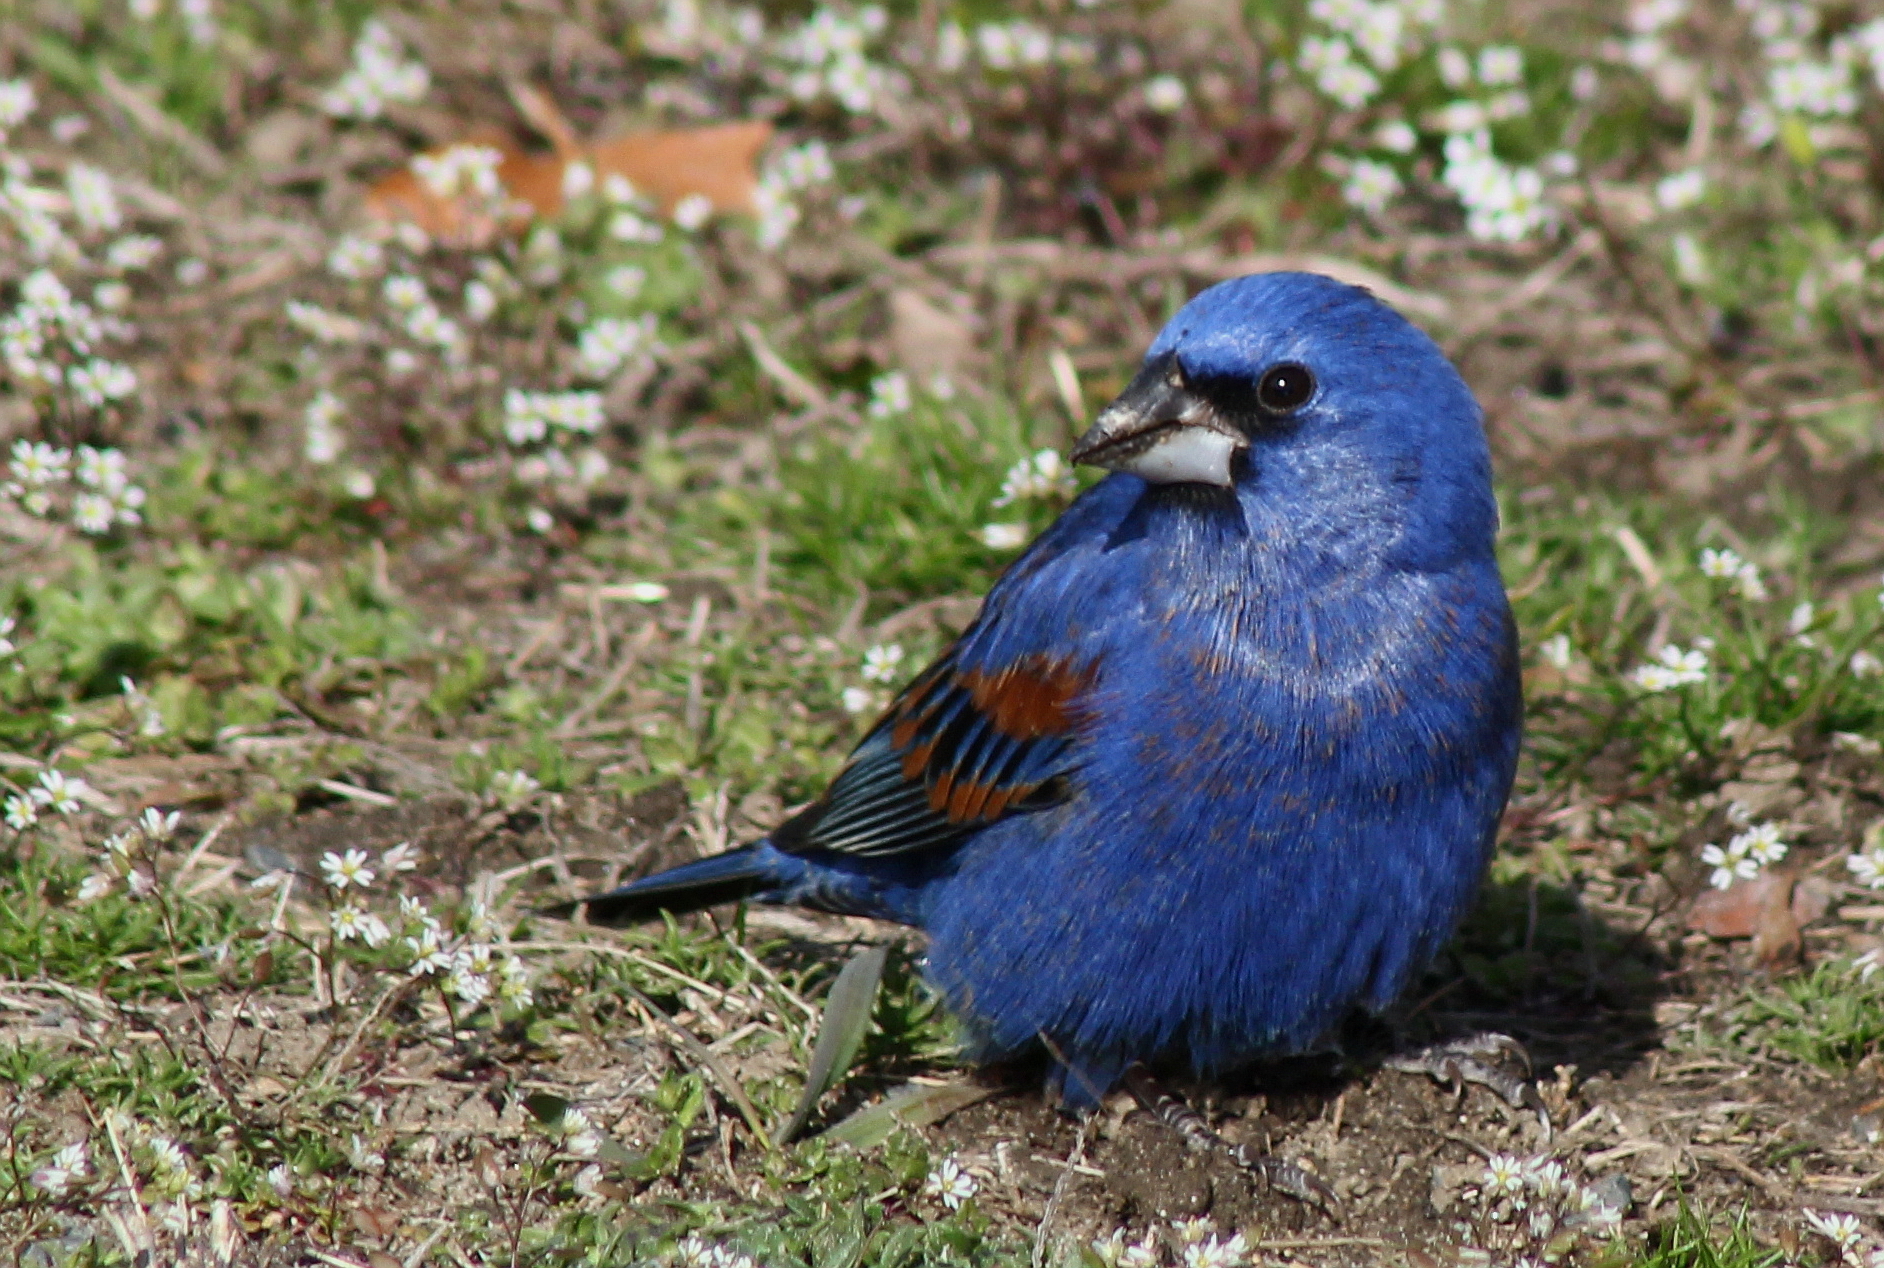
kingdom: Animalia
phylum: Chordata
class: Aves
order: Passeriformes
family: Cardinalidae
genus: Passerina
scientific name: Passerina caerulea
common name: Blue grosbeak
